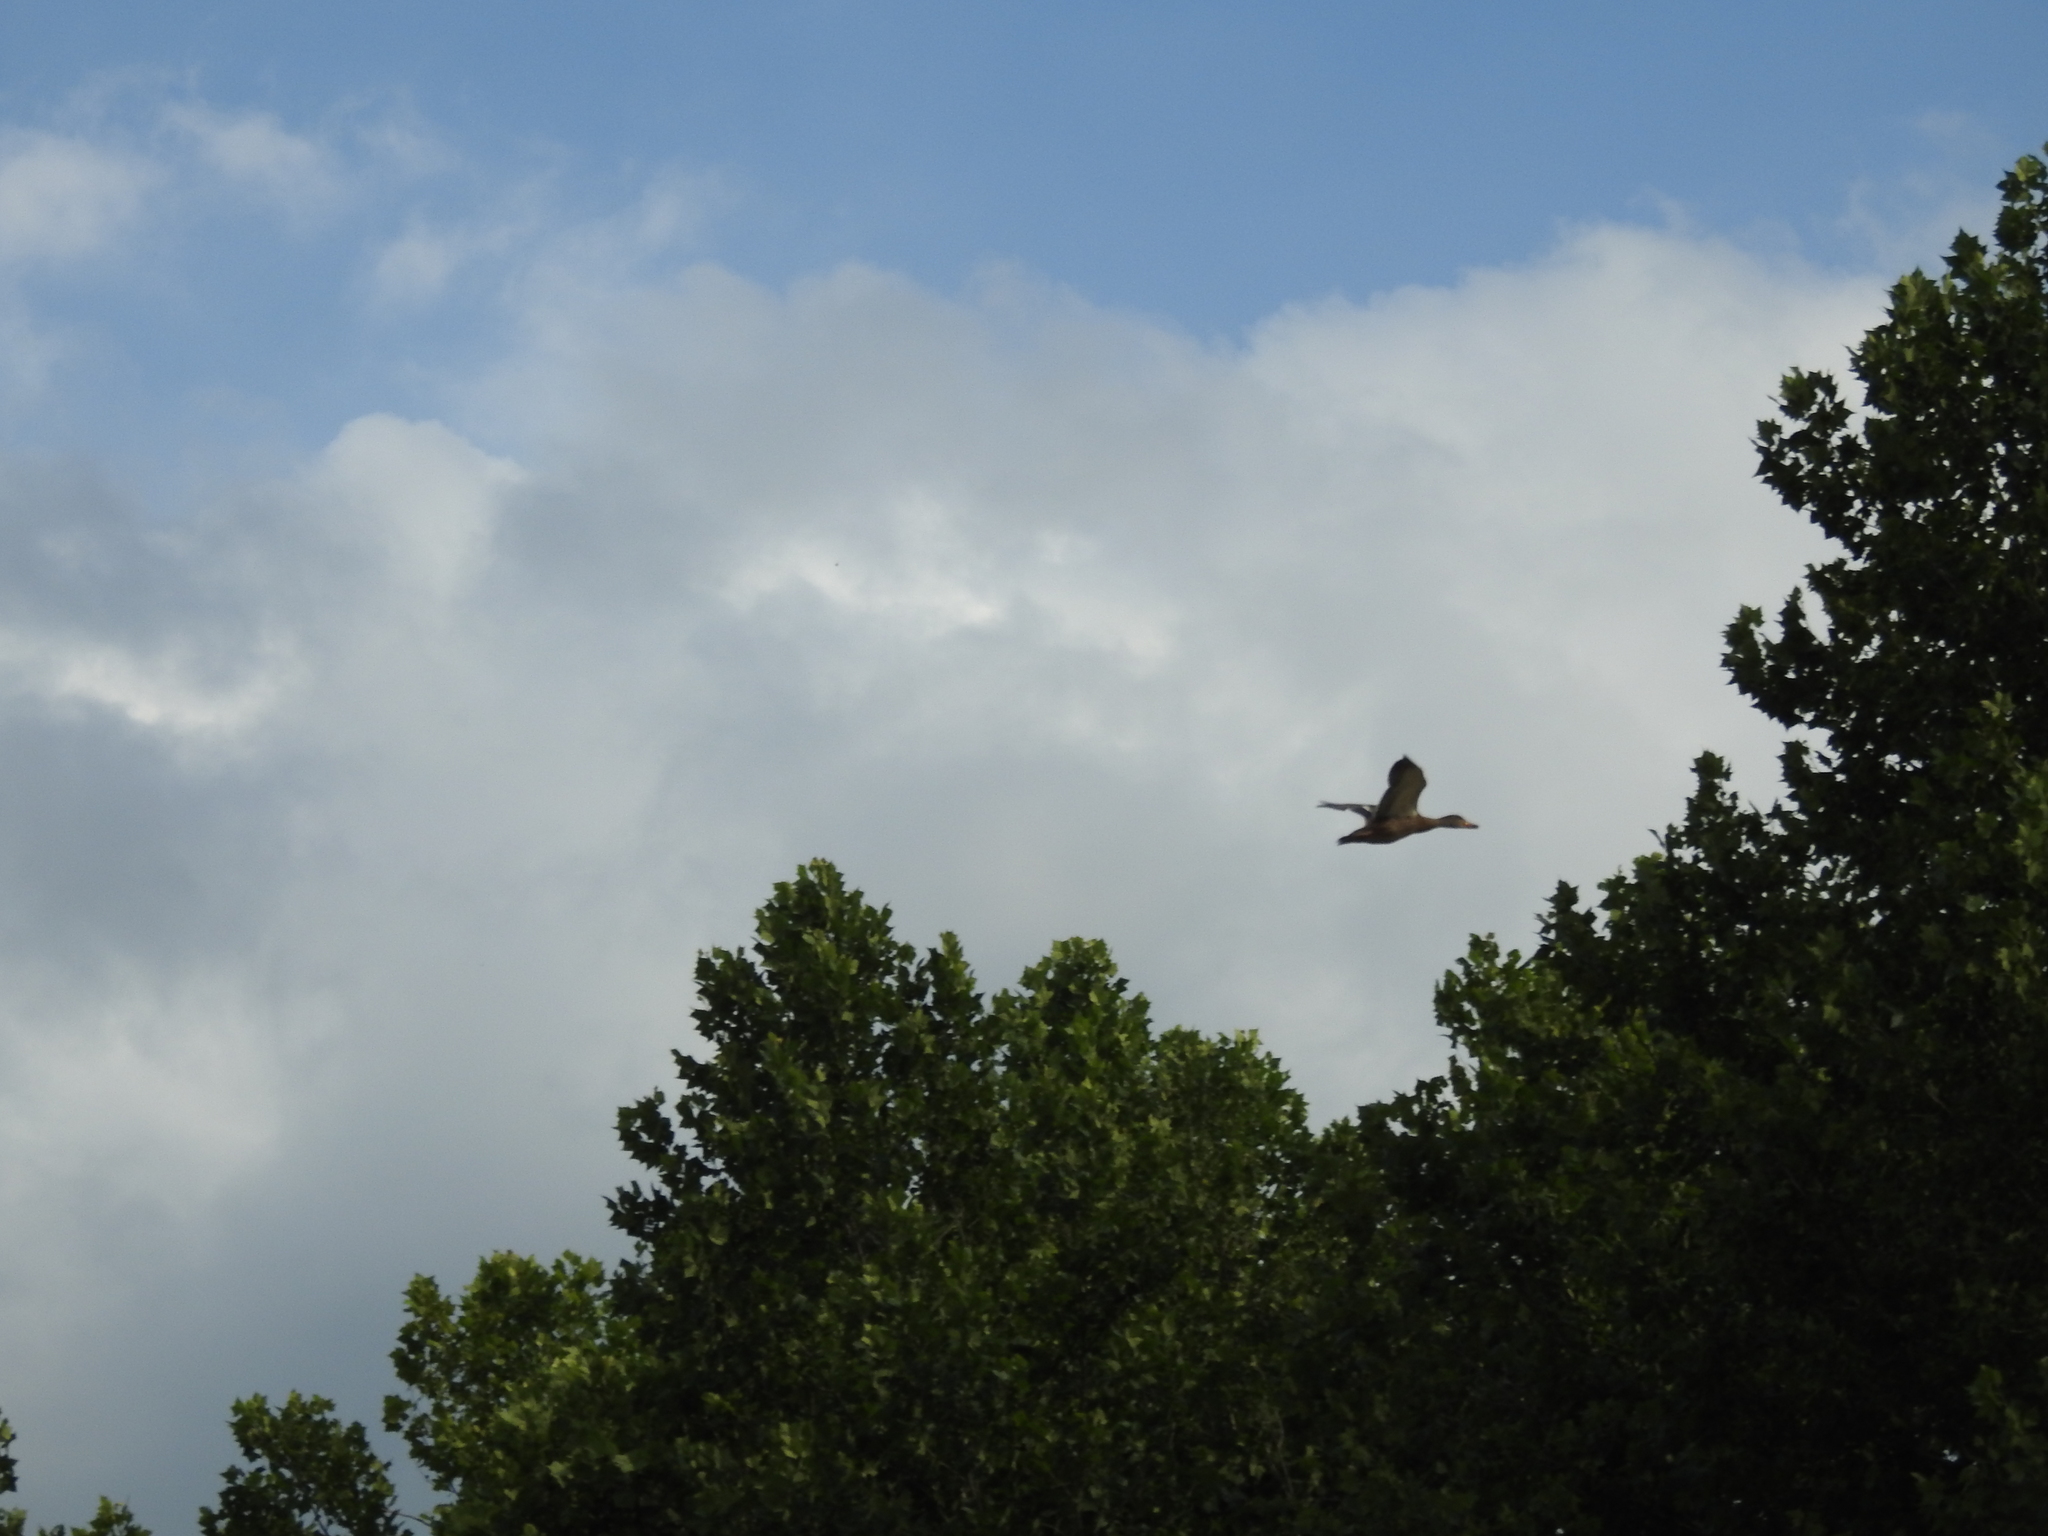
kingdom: Animalia
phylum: Chordata
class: Aves
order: Anseriformes
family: Anatidae
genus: Anas
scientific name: Anas platyrhynchos
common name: Mallard
